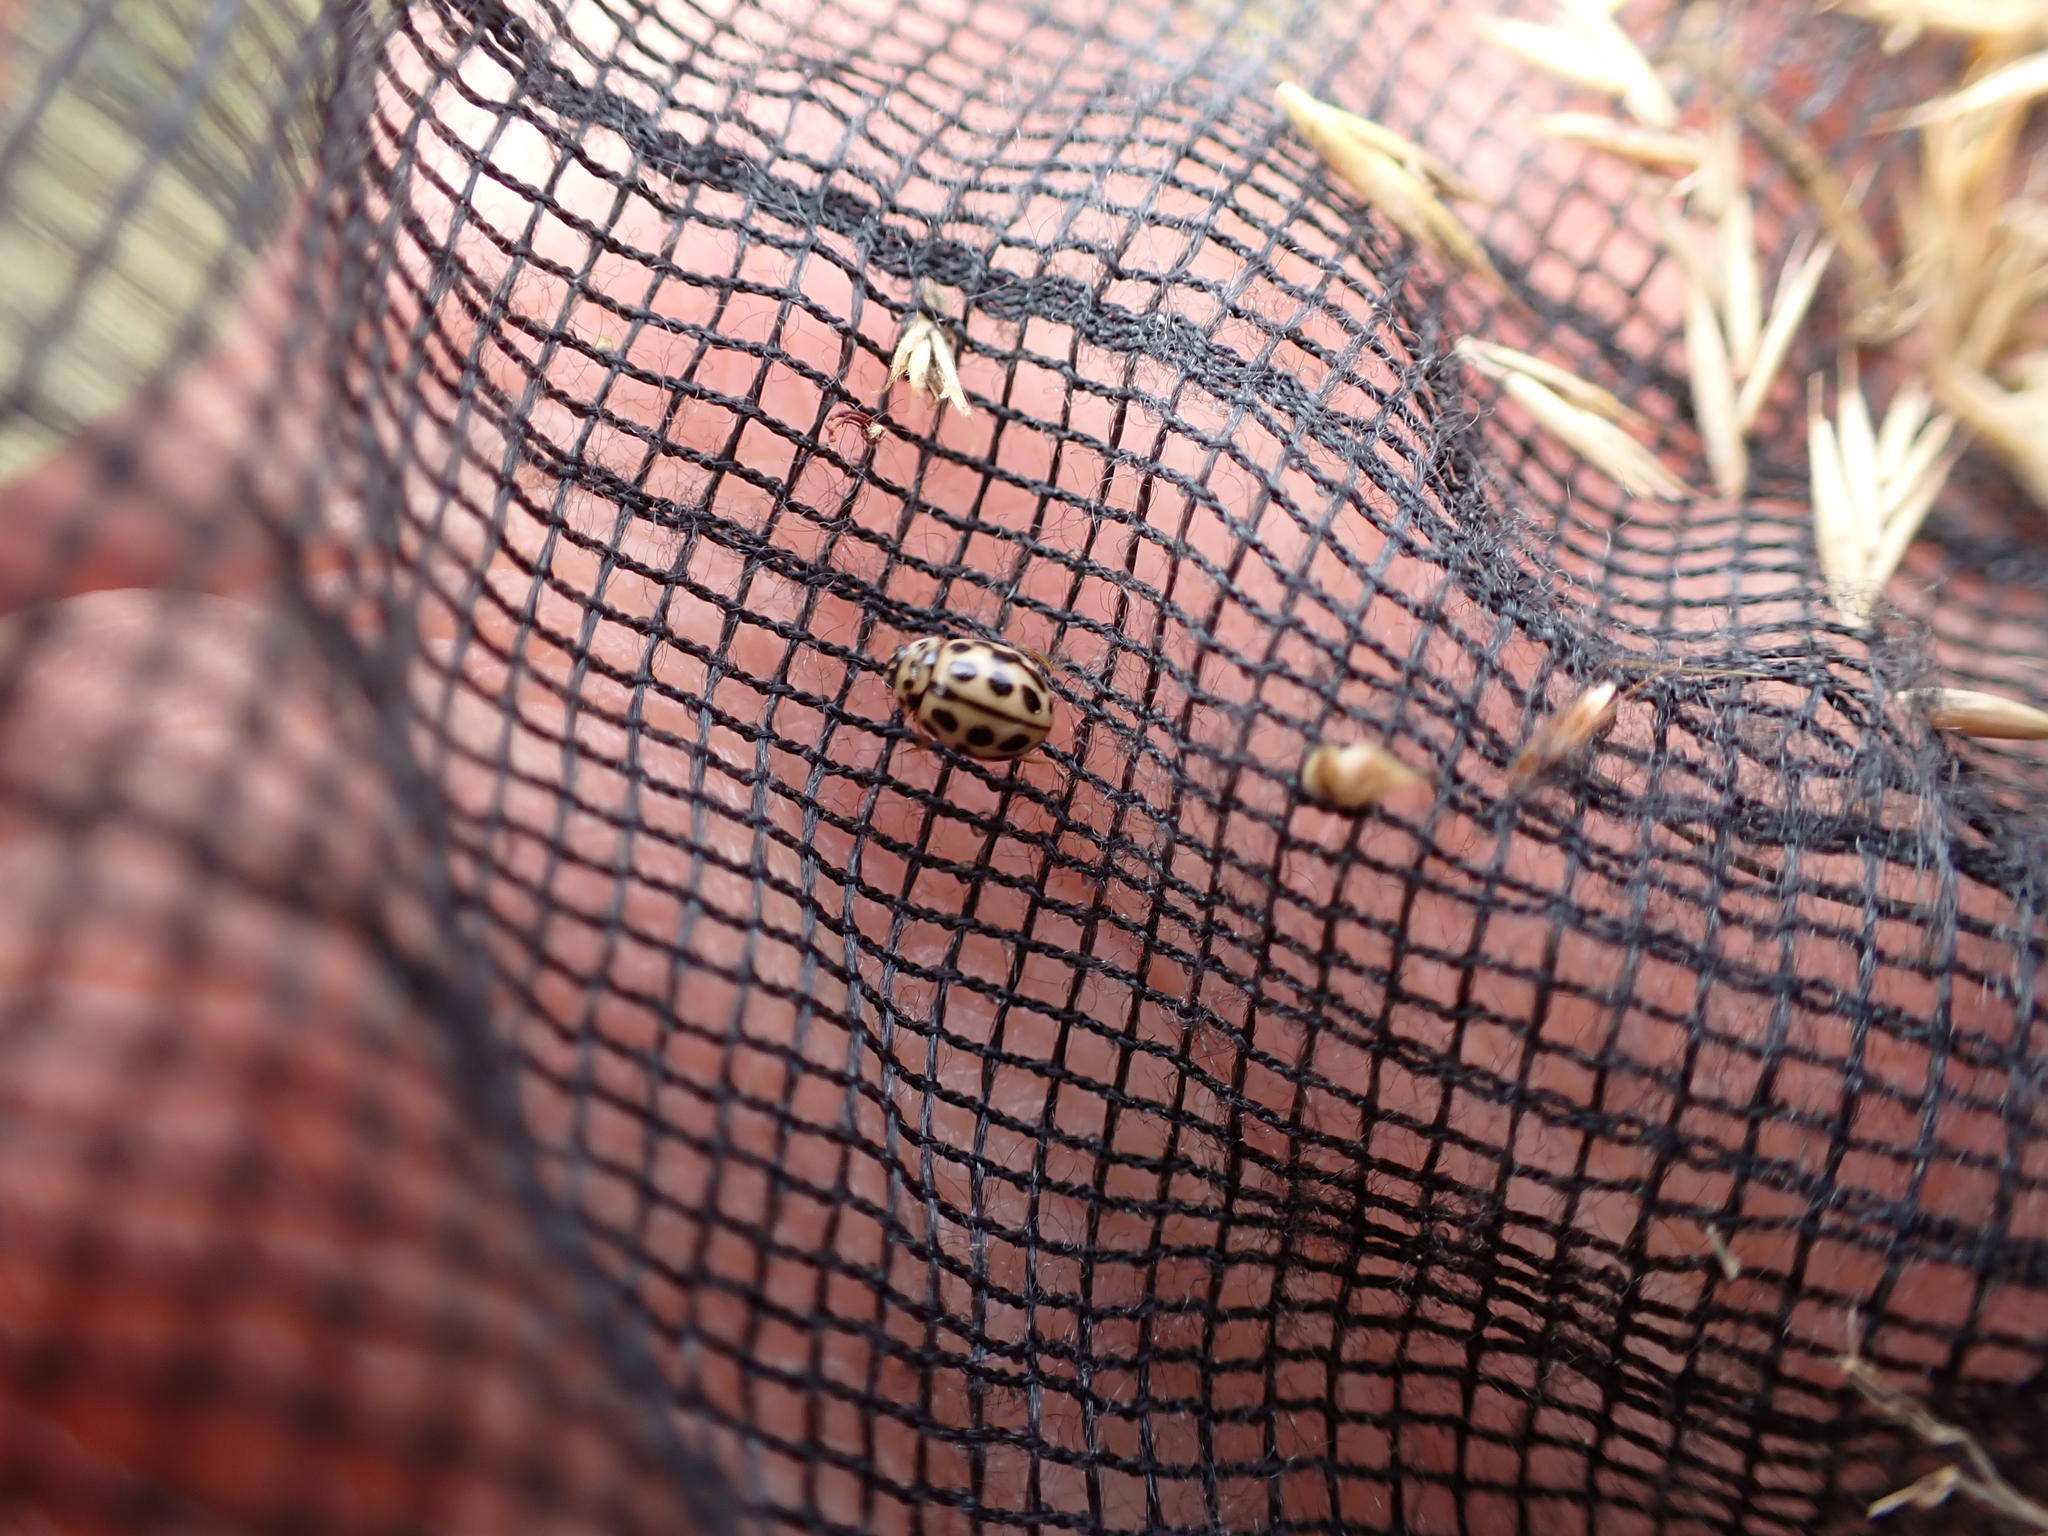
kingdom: Animalia
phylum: Arthropoda
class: Insecta
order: Coleoptera
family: Coccinellidae
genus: Tytthaspis
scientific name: Tytthaspis sedecimpunctata
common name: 16-spot ladybird
